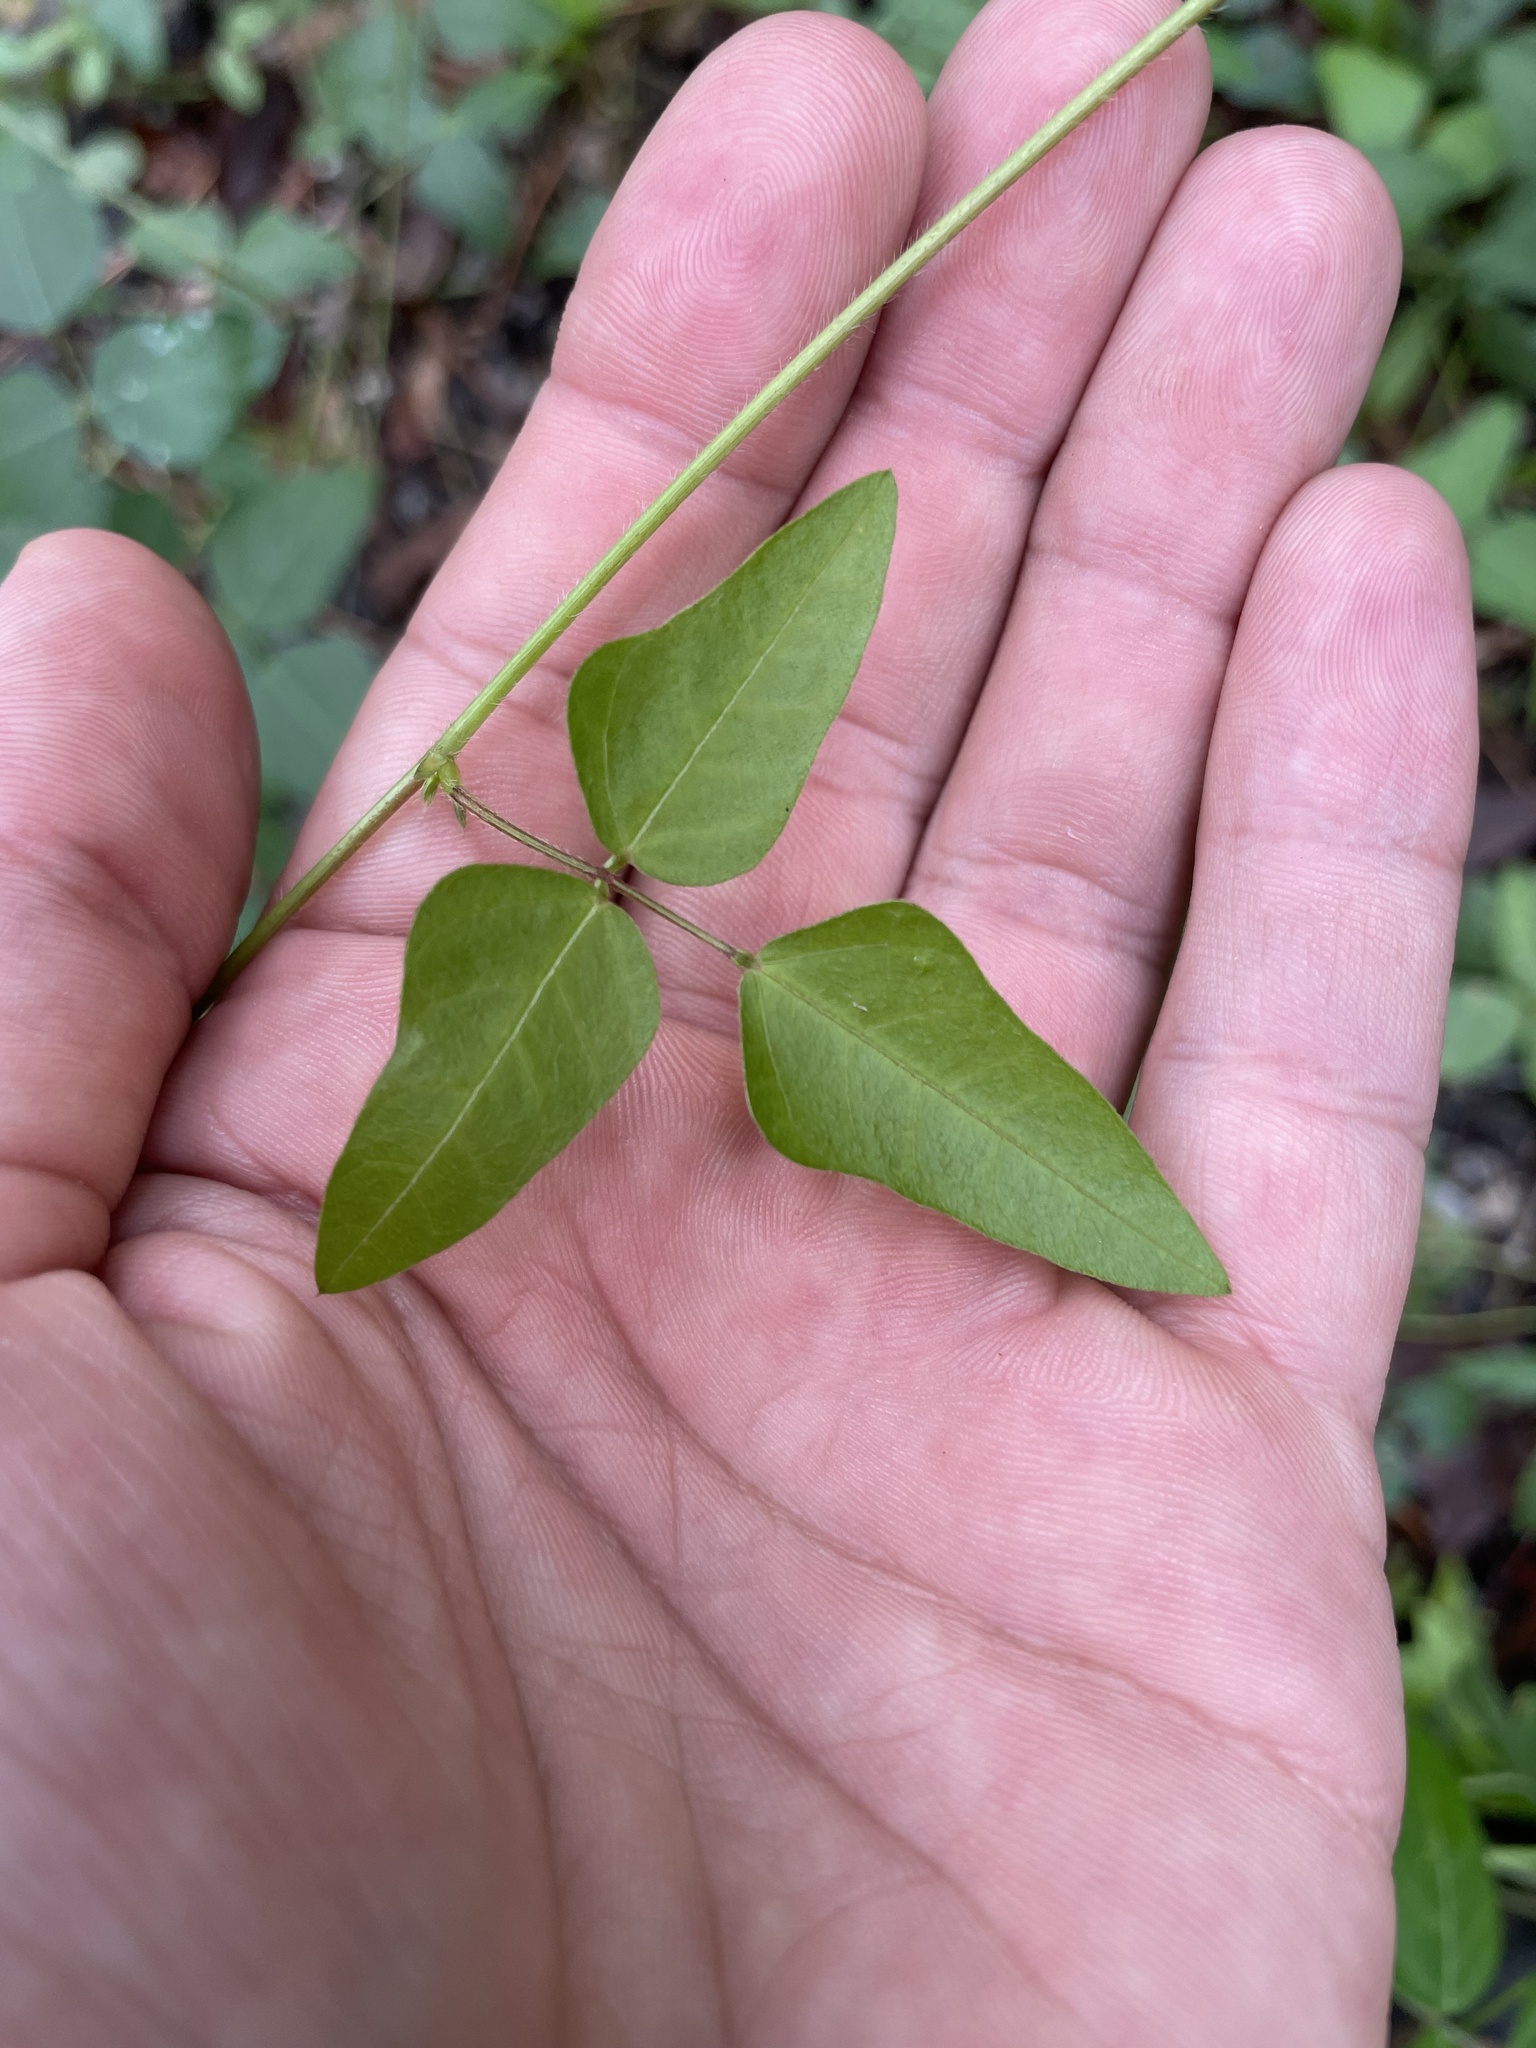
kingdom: Plantae
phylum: Tracheophyta
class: Magnoliopsida
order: Fabales
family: Fabaceae
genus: Strophostyles
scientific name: Strophostyles helvola
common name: Trailing wild bean
